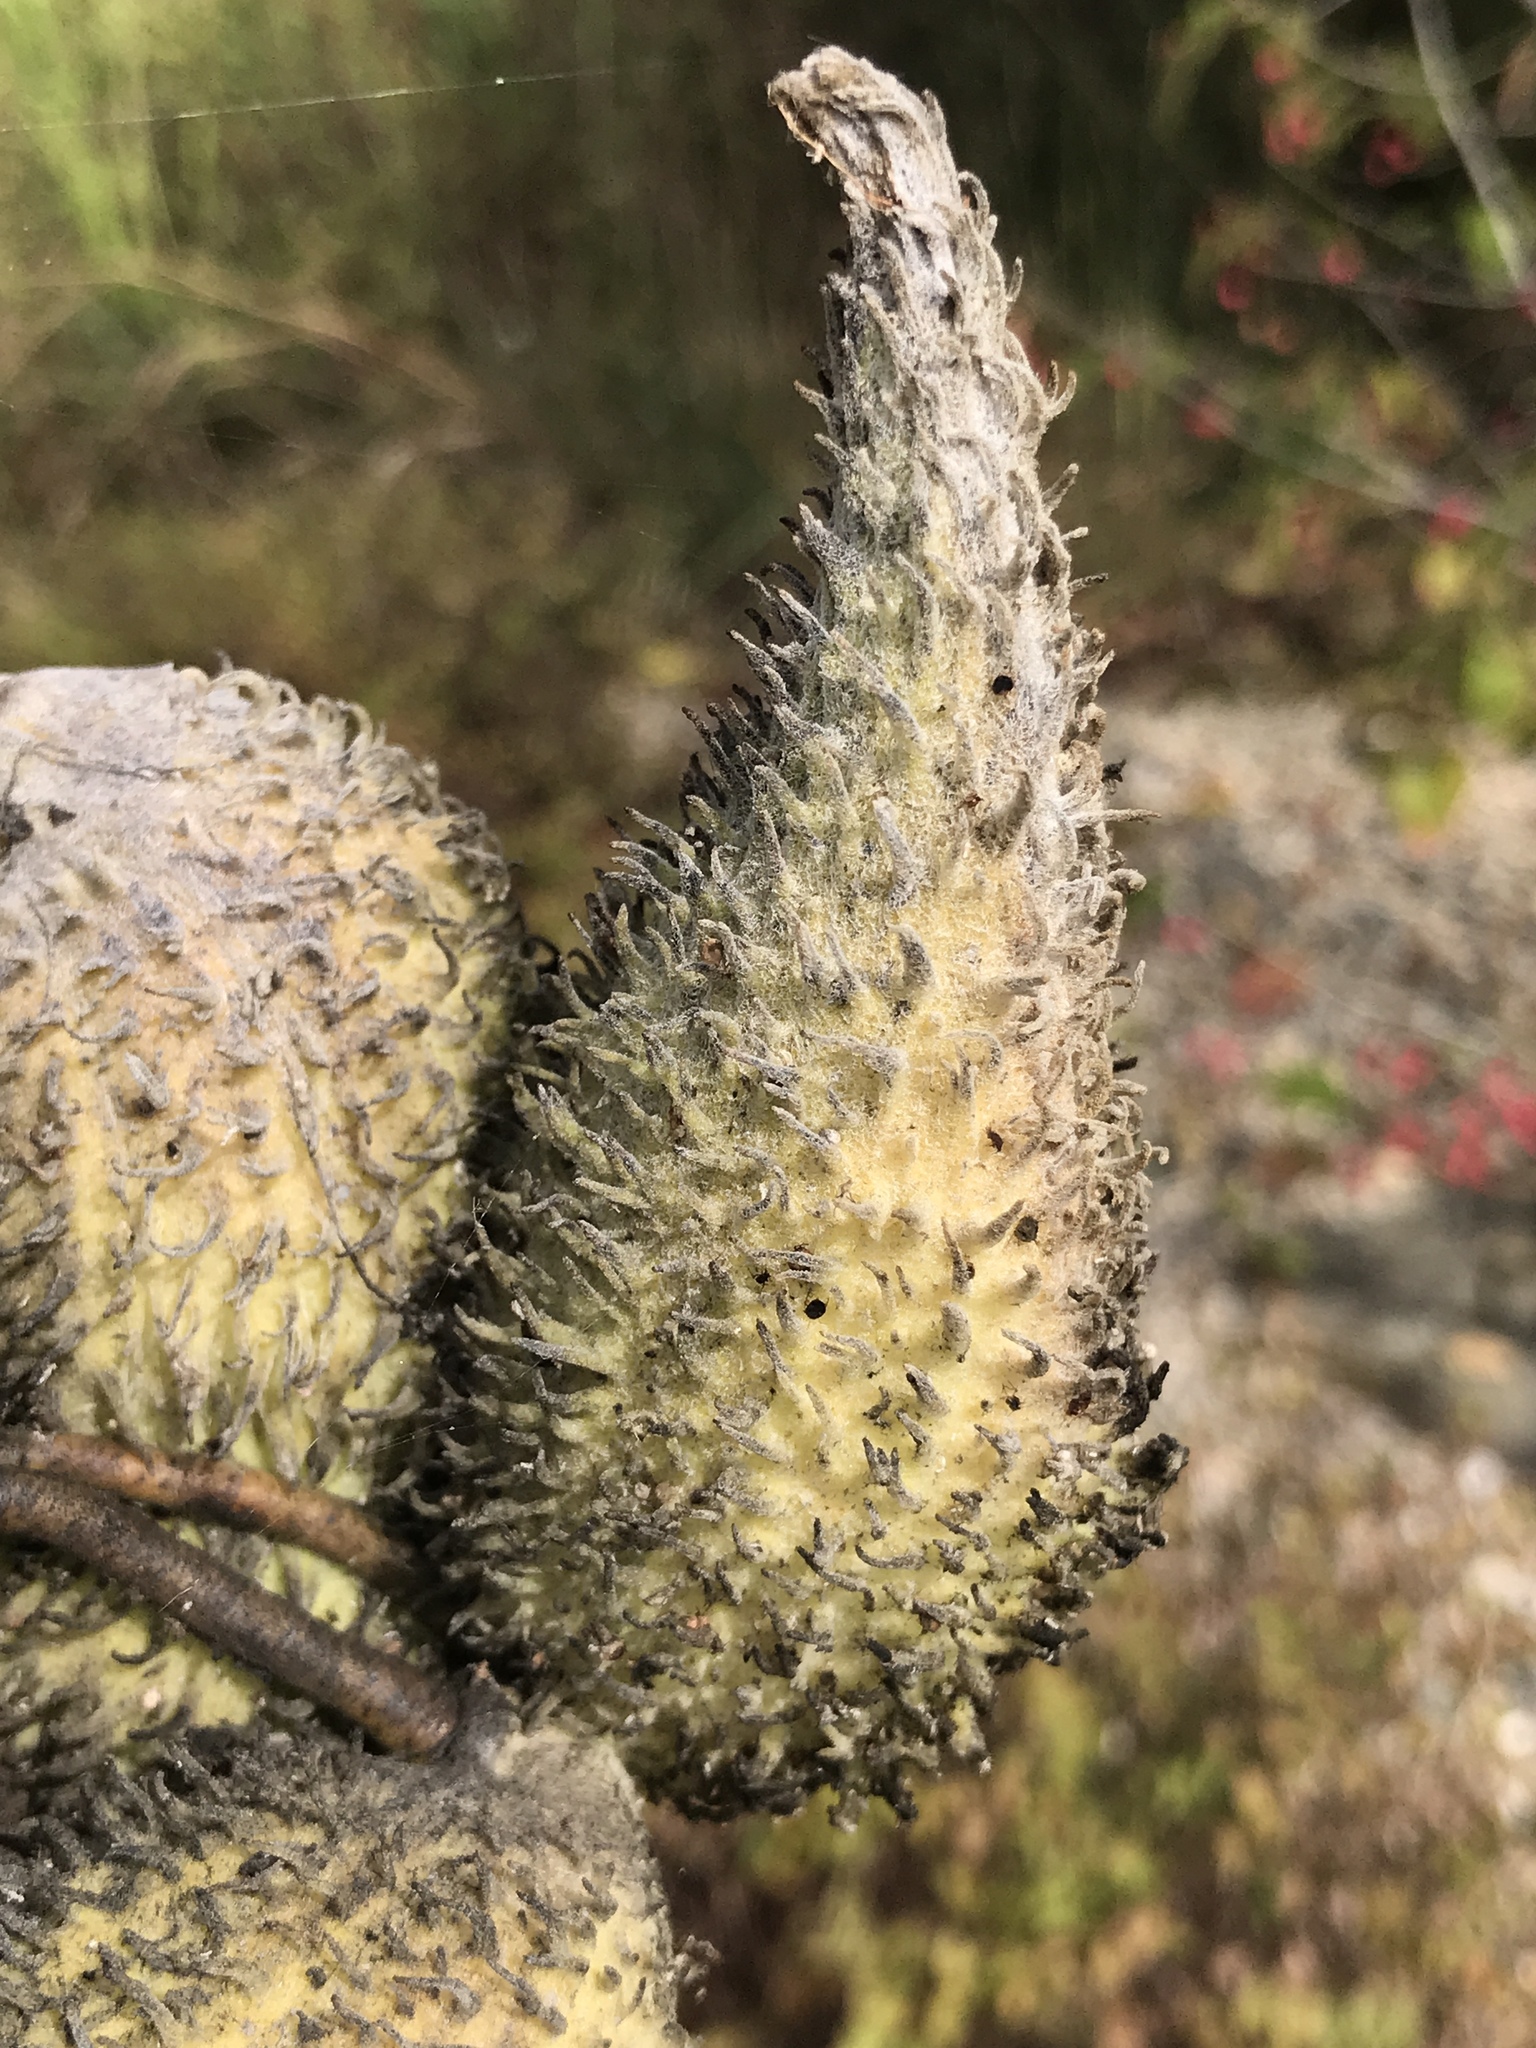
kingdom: Plantae
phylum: Tracheophyta
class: Magnoliopsida
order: Gentianales
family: Apocynaceae
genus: Asclepias
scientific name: Asclepias syriaca
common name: Common milkweed
